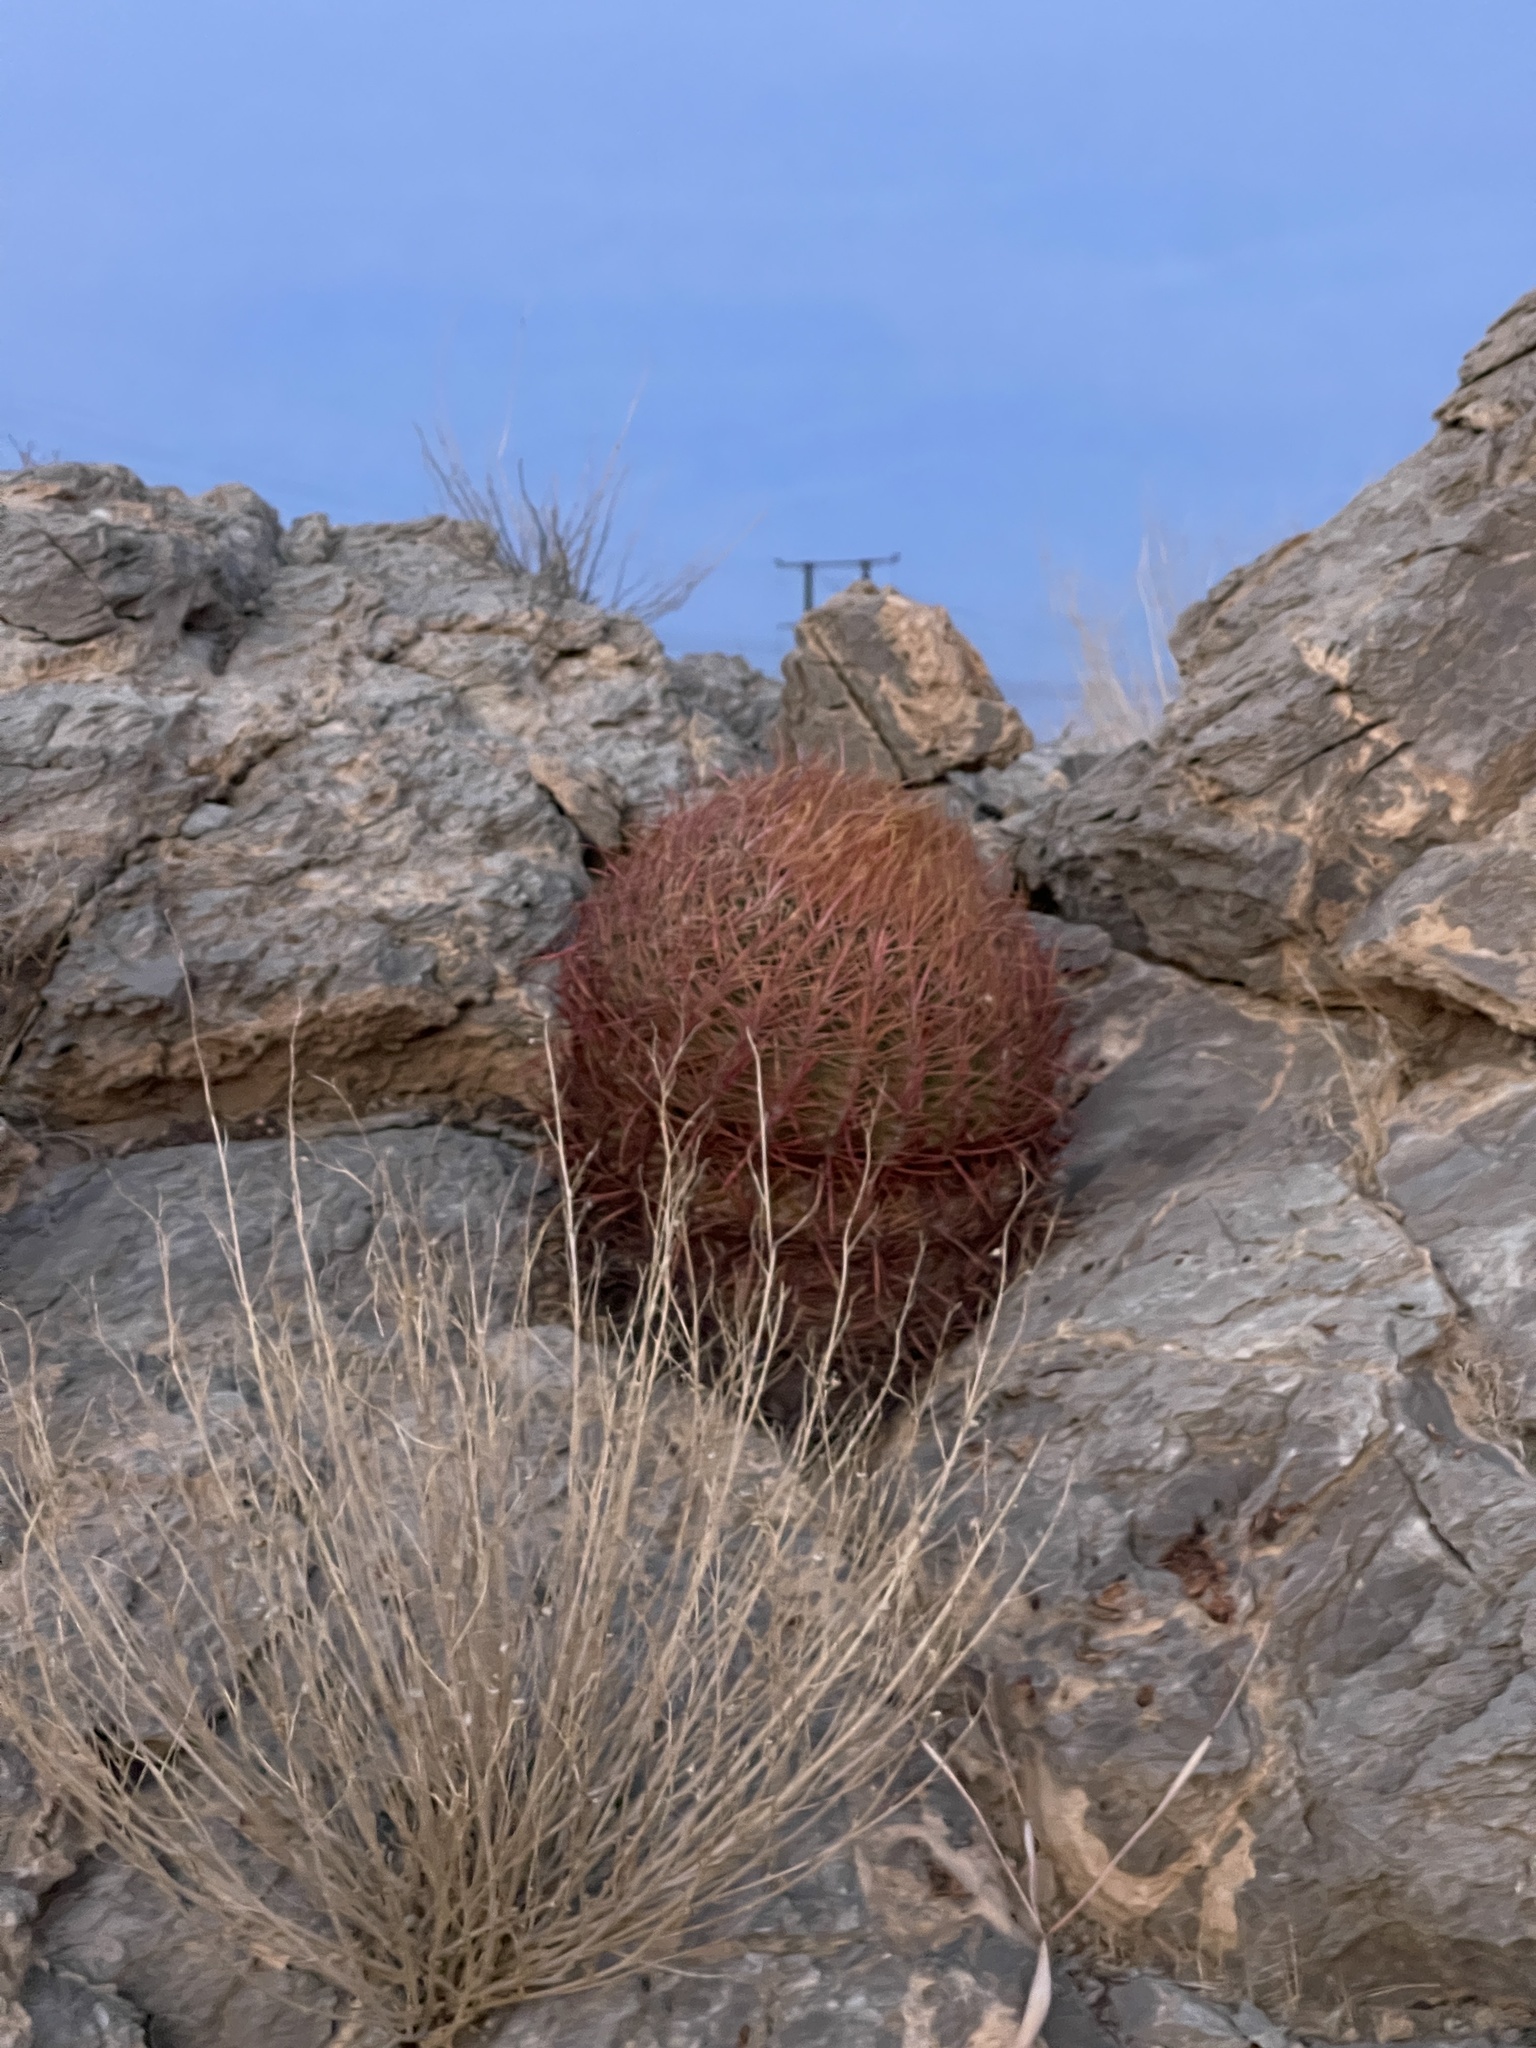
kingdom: Plantae
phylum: Tracheophyta
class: Magnoliopsida
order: Caryophyllales
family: Cactaceae
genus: Ferocactus
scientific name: Ferocactus cylindraceus
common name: California barrel cactus
